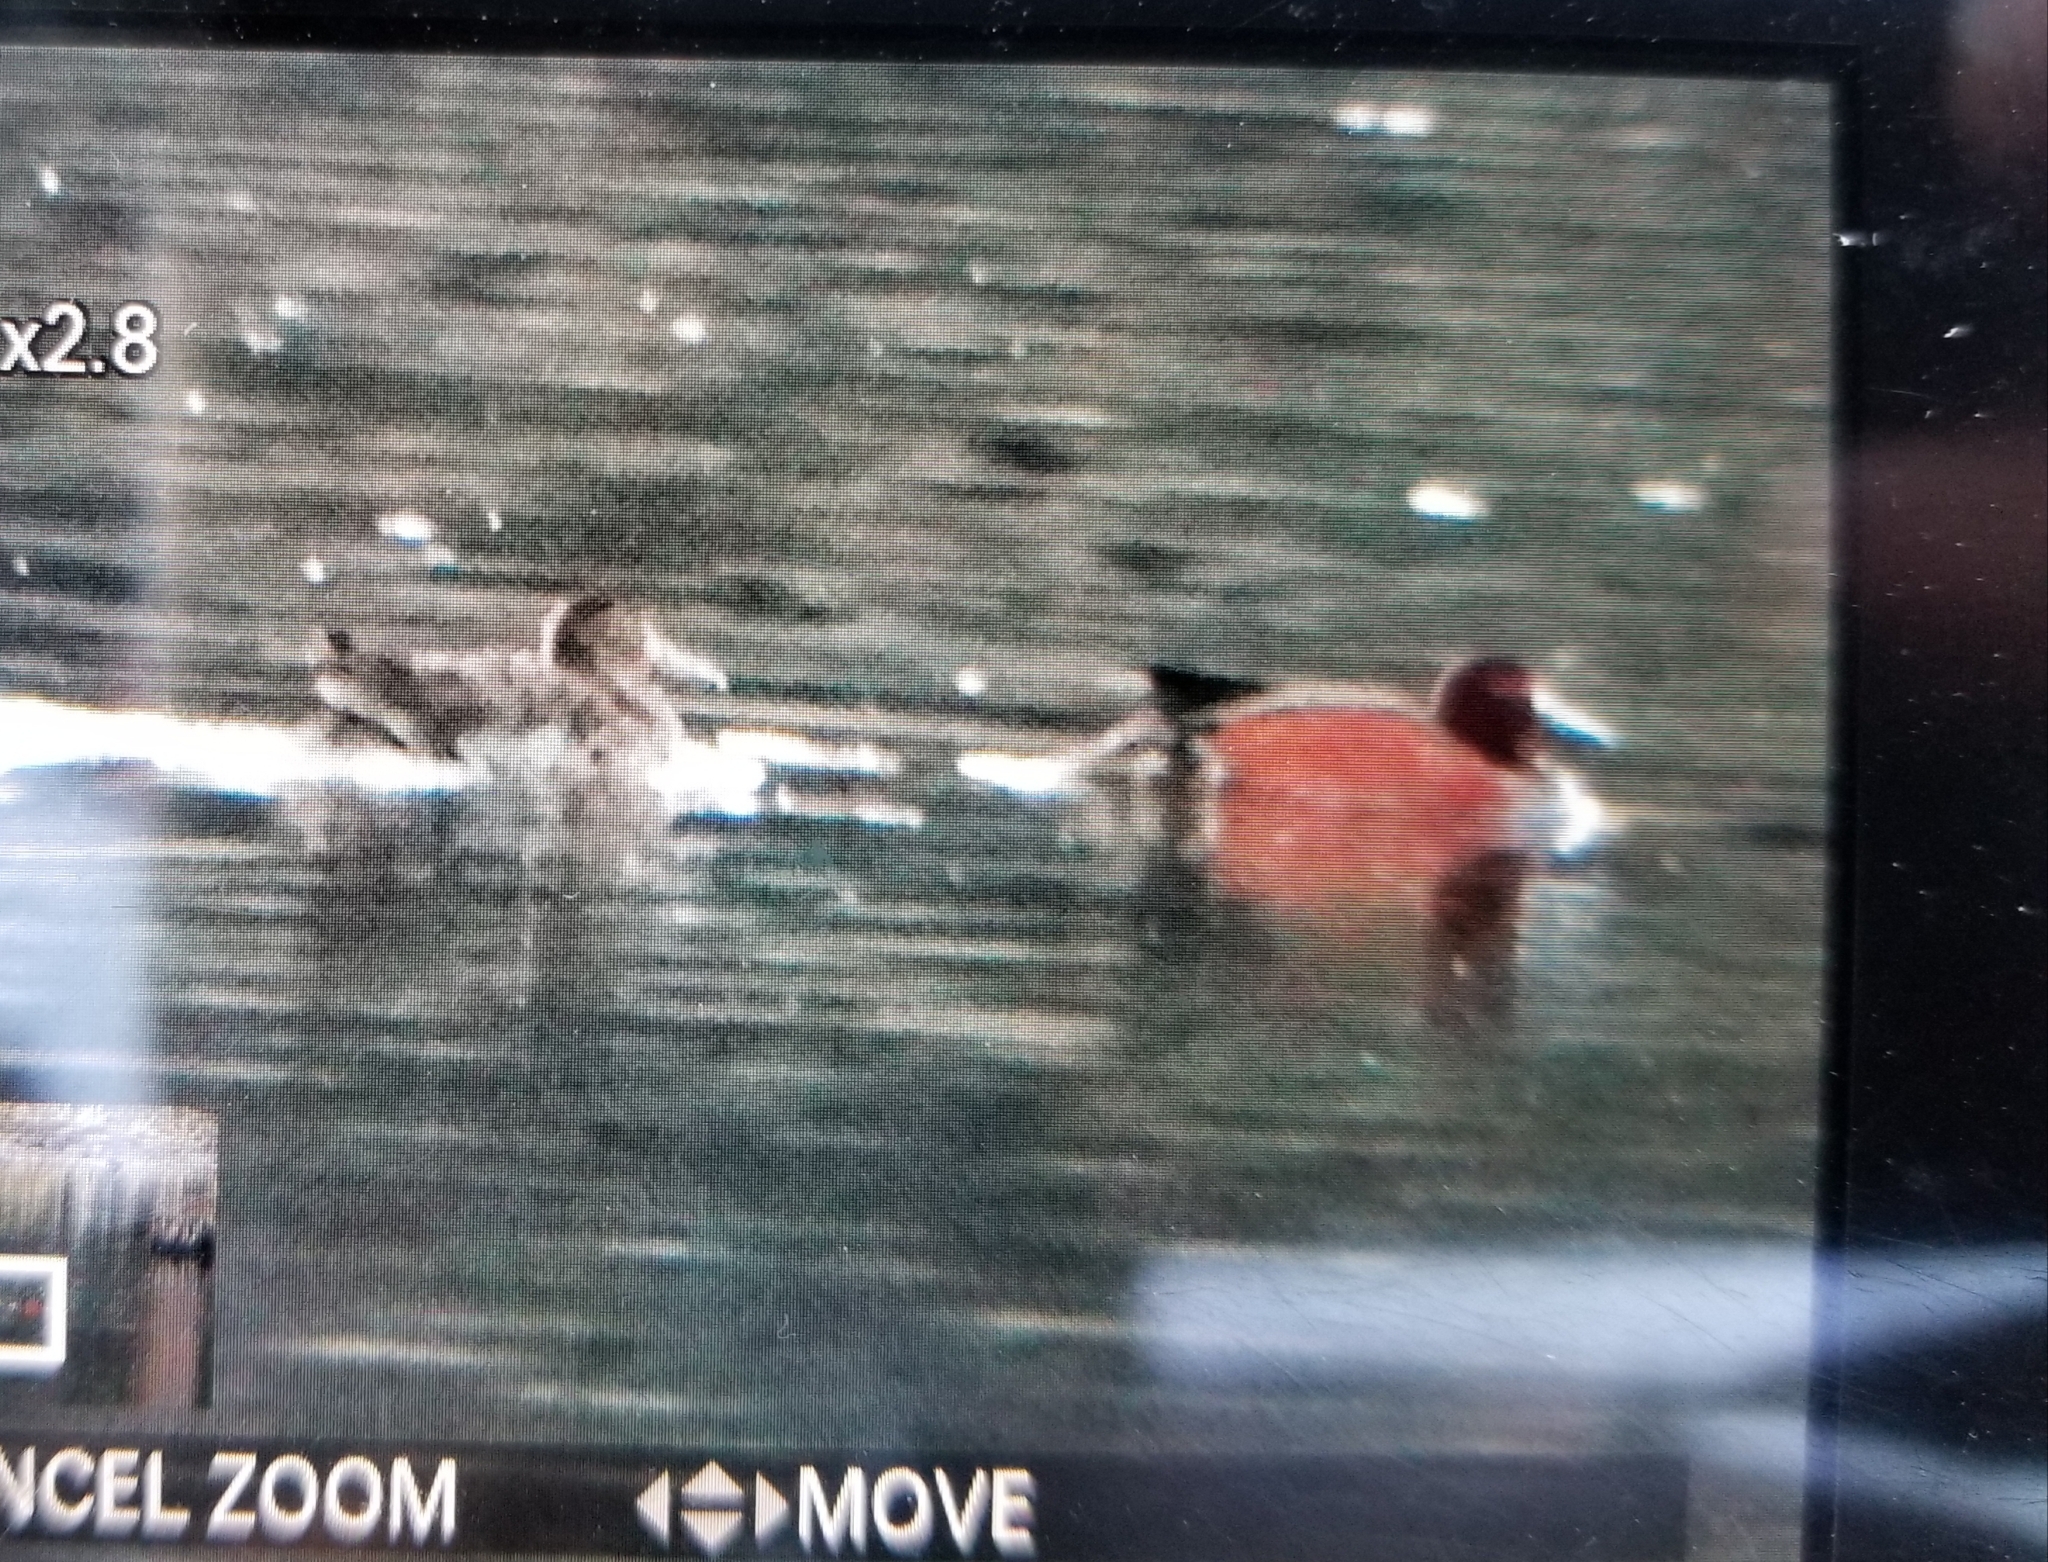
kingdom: Animalia
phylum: Chordata
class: Aves
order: Anseriformes
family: Anatidae
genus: Spatula
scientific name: Spatula cyanoptera
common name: Cinnamon teal
